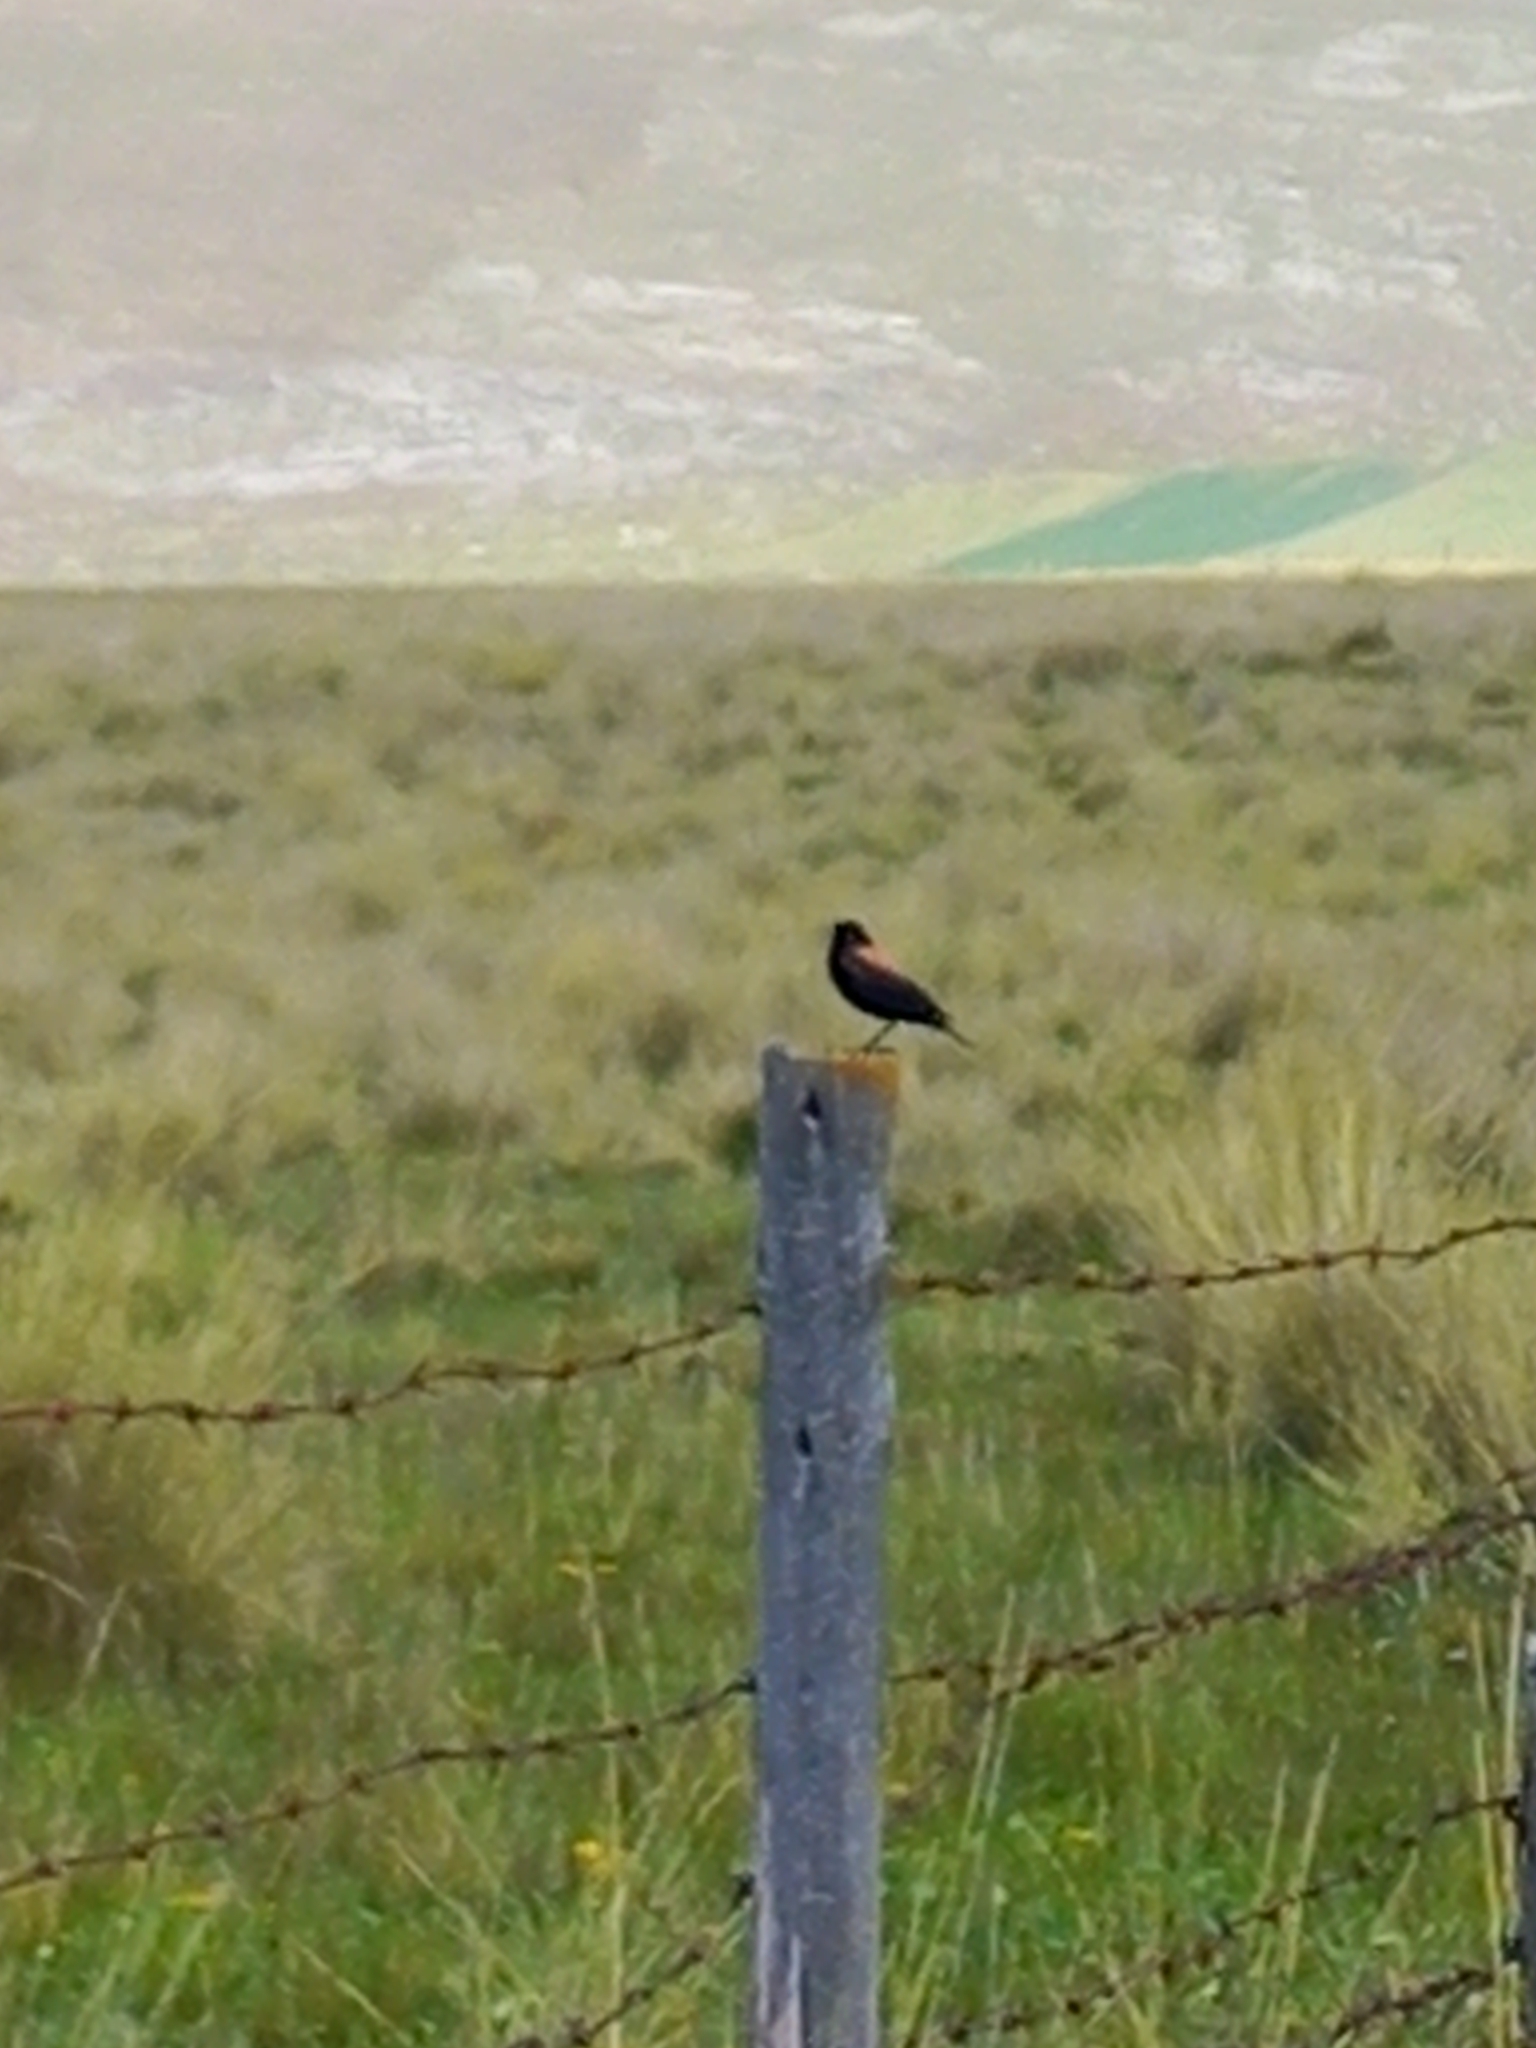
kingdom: Animalia
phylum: Chordata
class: Aves
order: Passeriformes
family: Tyrannidae
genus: Lessonia
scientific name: Lessonia oreas
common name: Andean negrito
